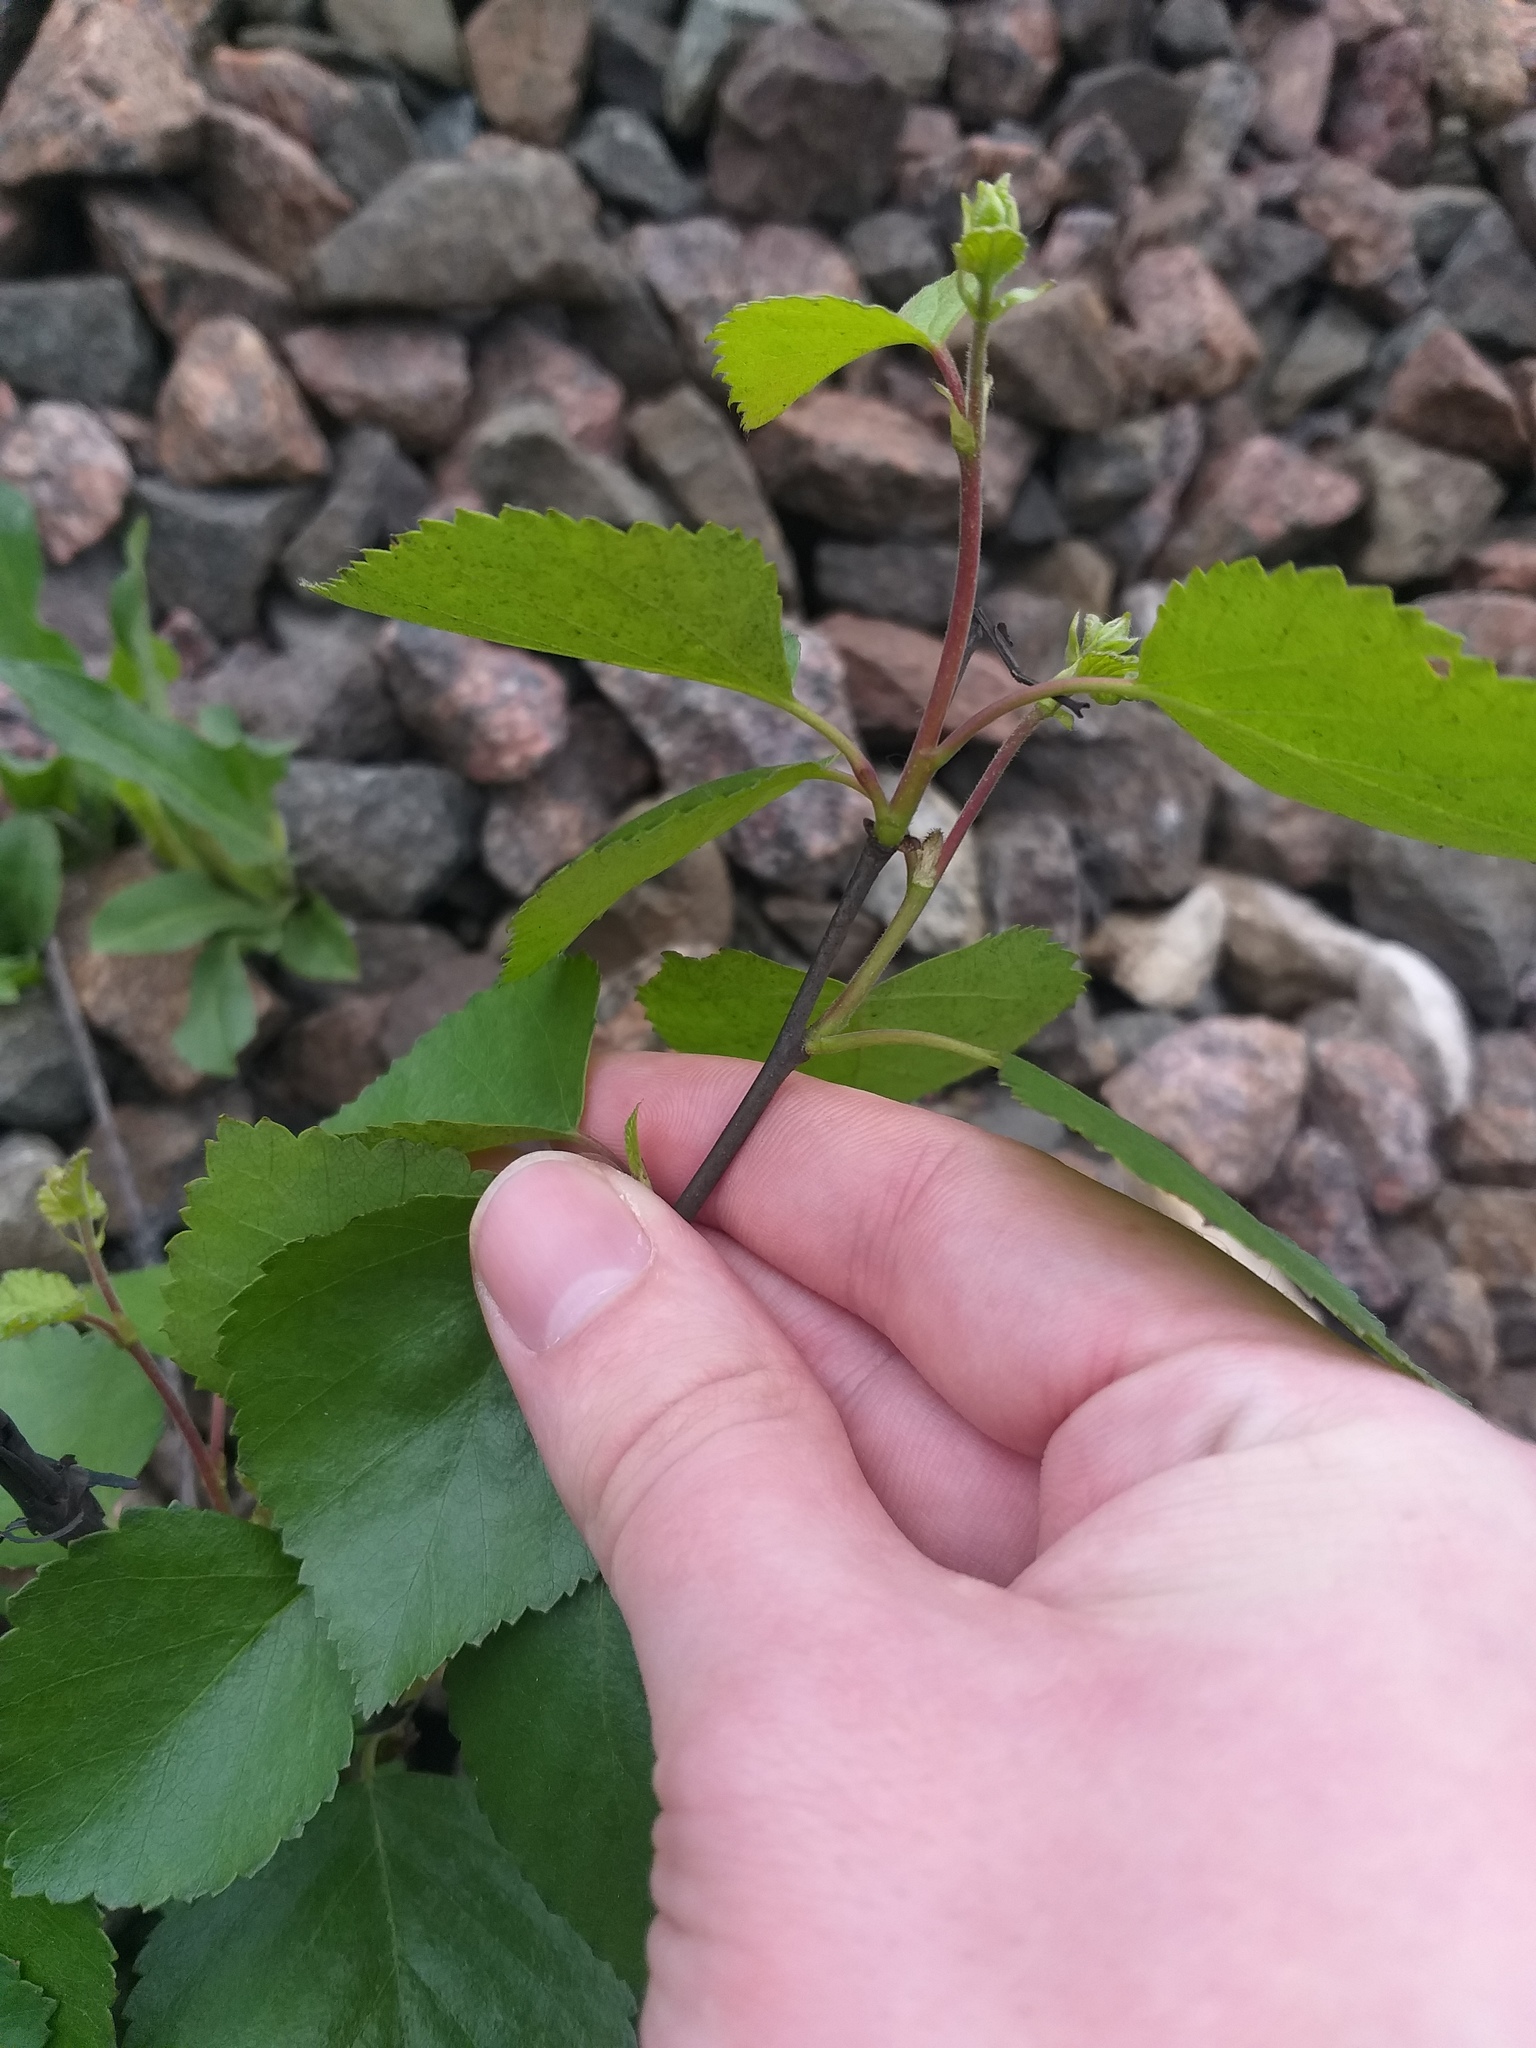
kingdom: Plantae
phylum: Tracheophyta
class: Magnoliopsida
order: Fagales
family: Betulaceae
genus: Betula
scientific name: Betula pubescens
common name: Downy birch
